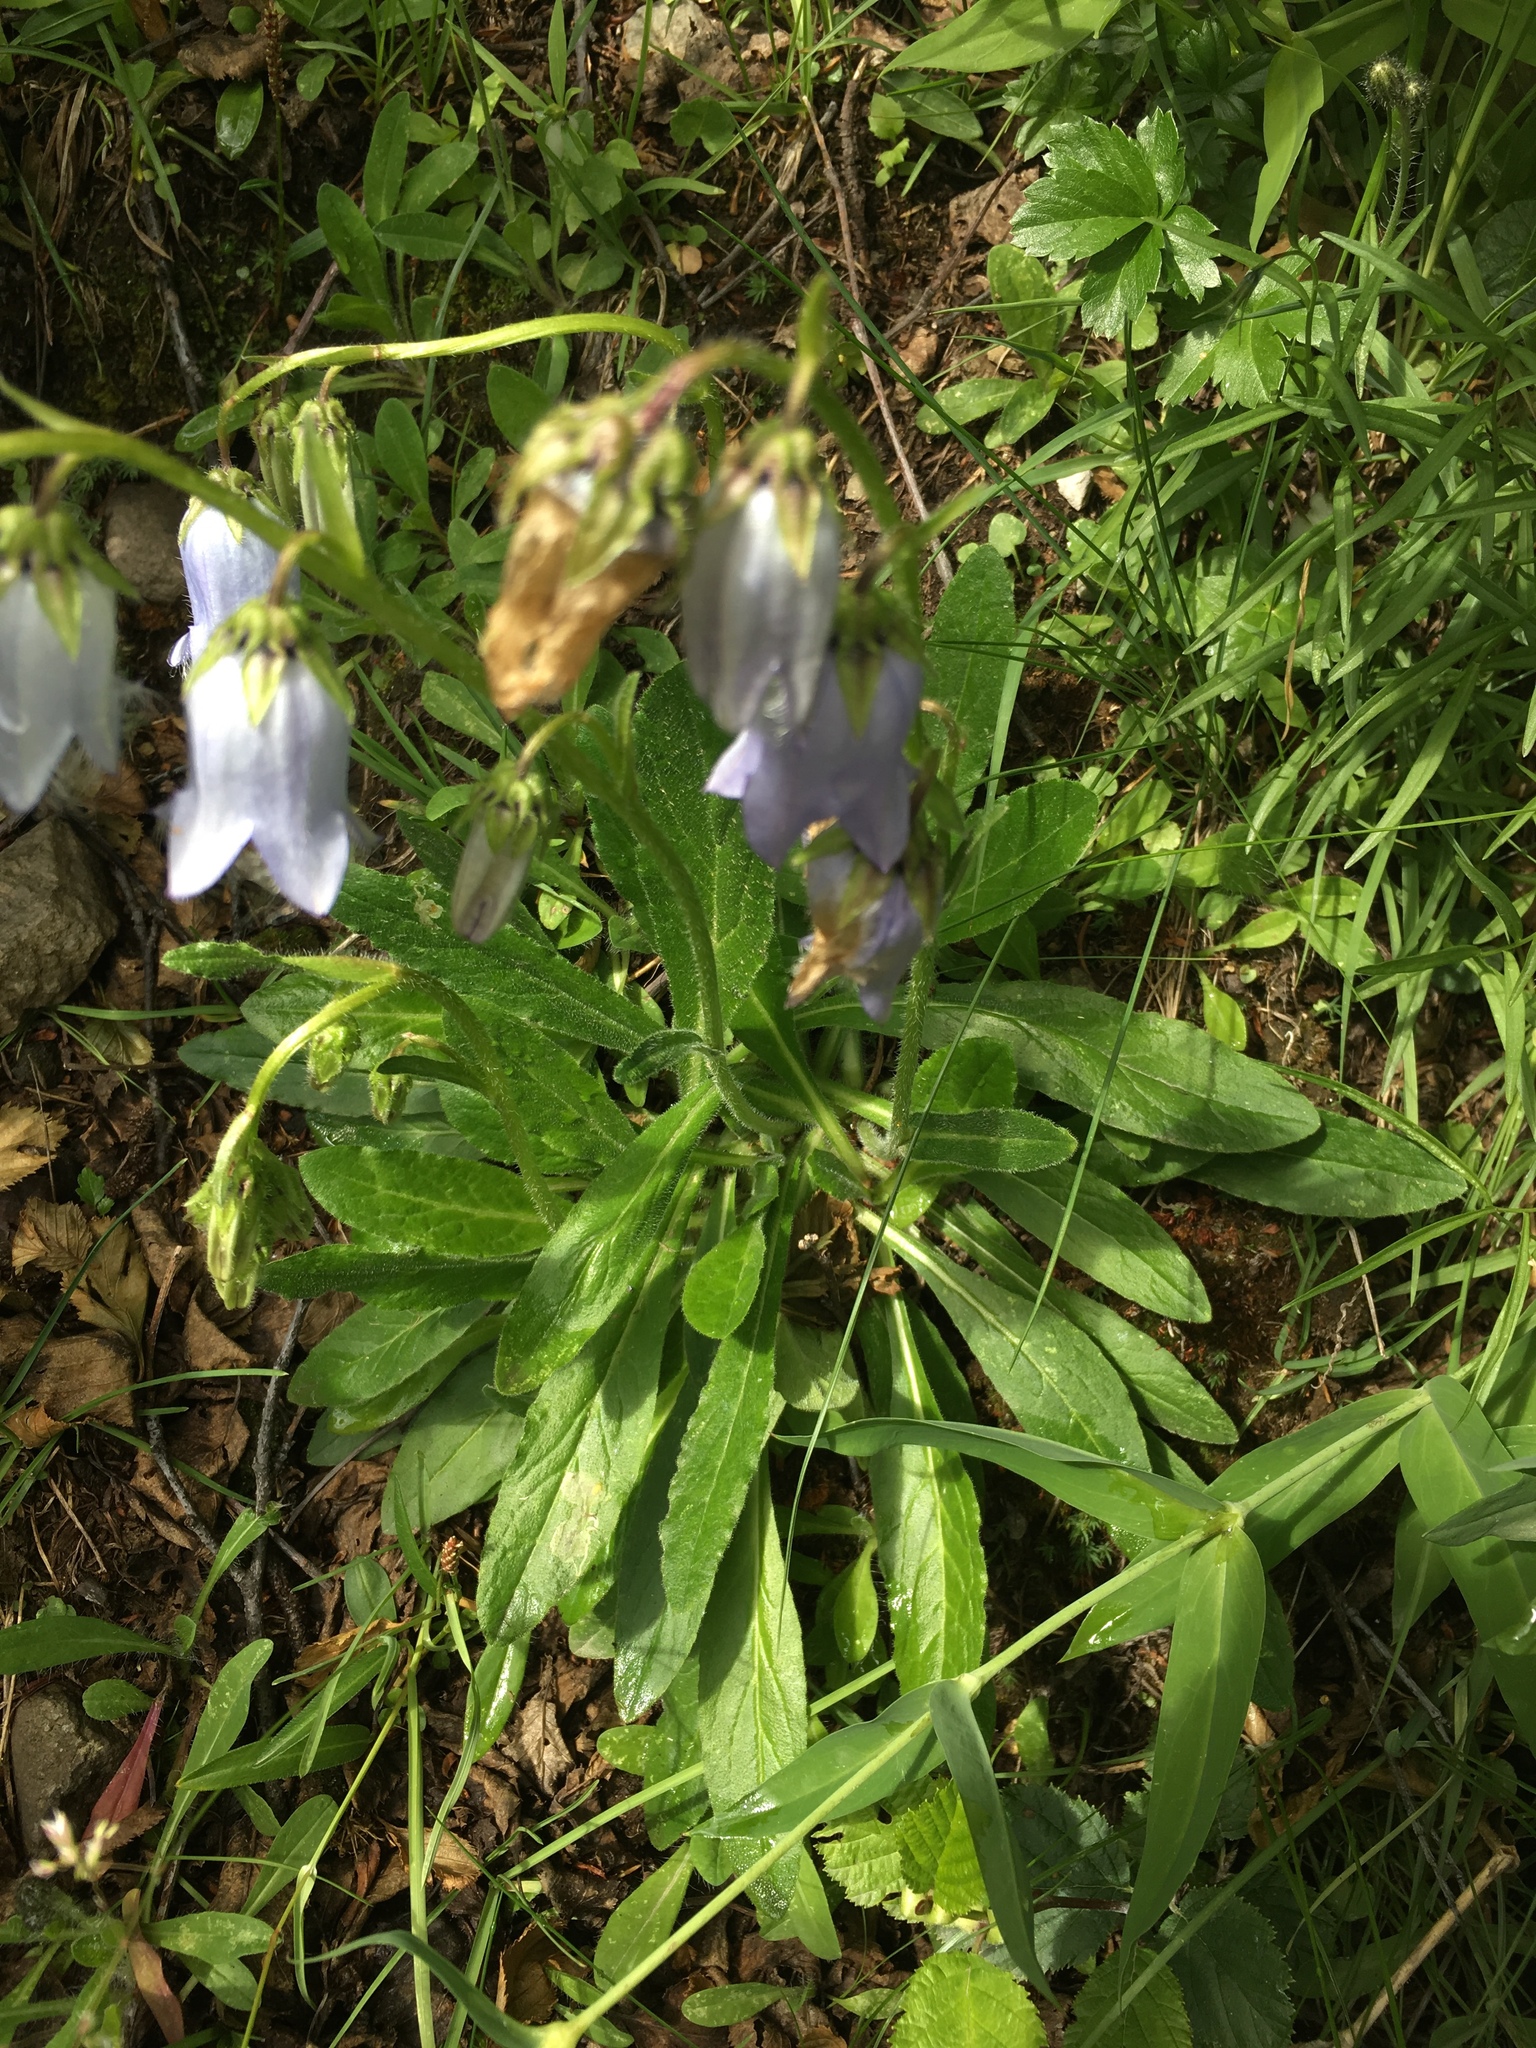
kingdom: Plantae
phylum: Tracheophyta
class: Magnoliopsida
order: Asterales
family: Campanulaceae
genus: Campanula
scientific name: Campanula barbata
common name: Bearded bellflower
